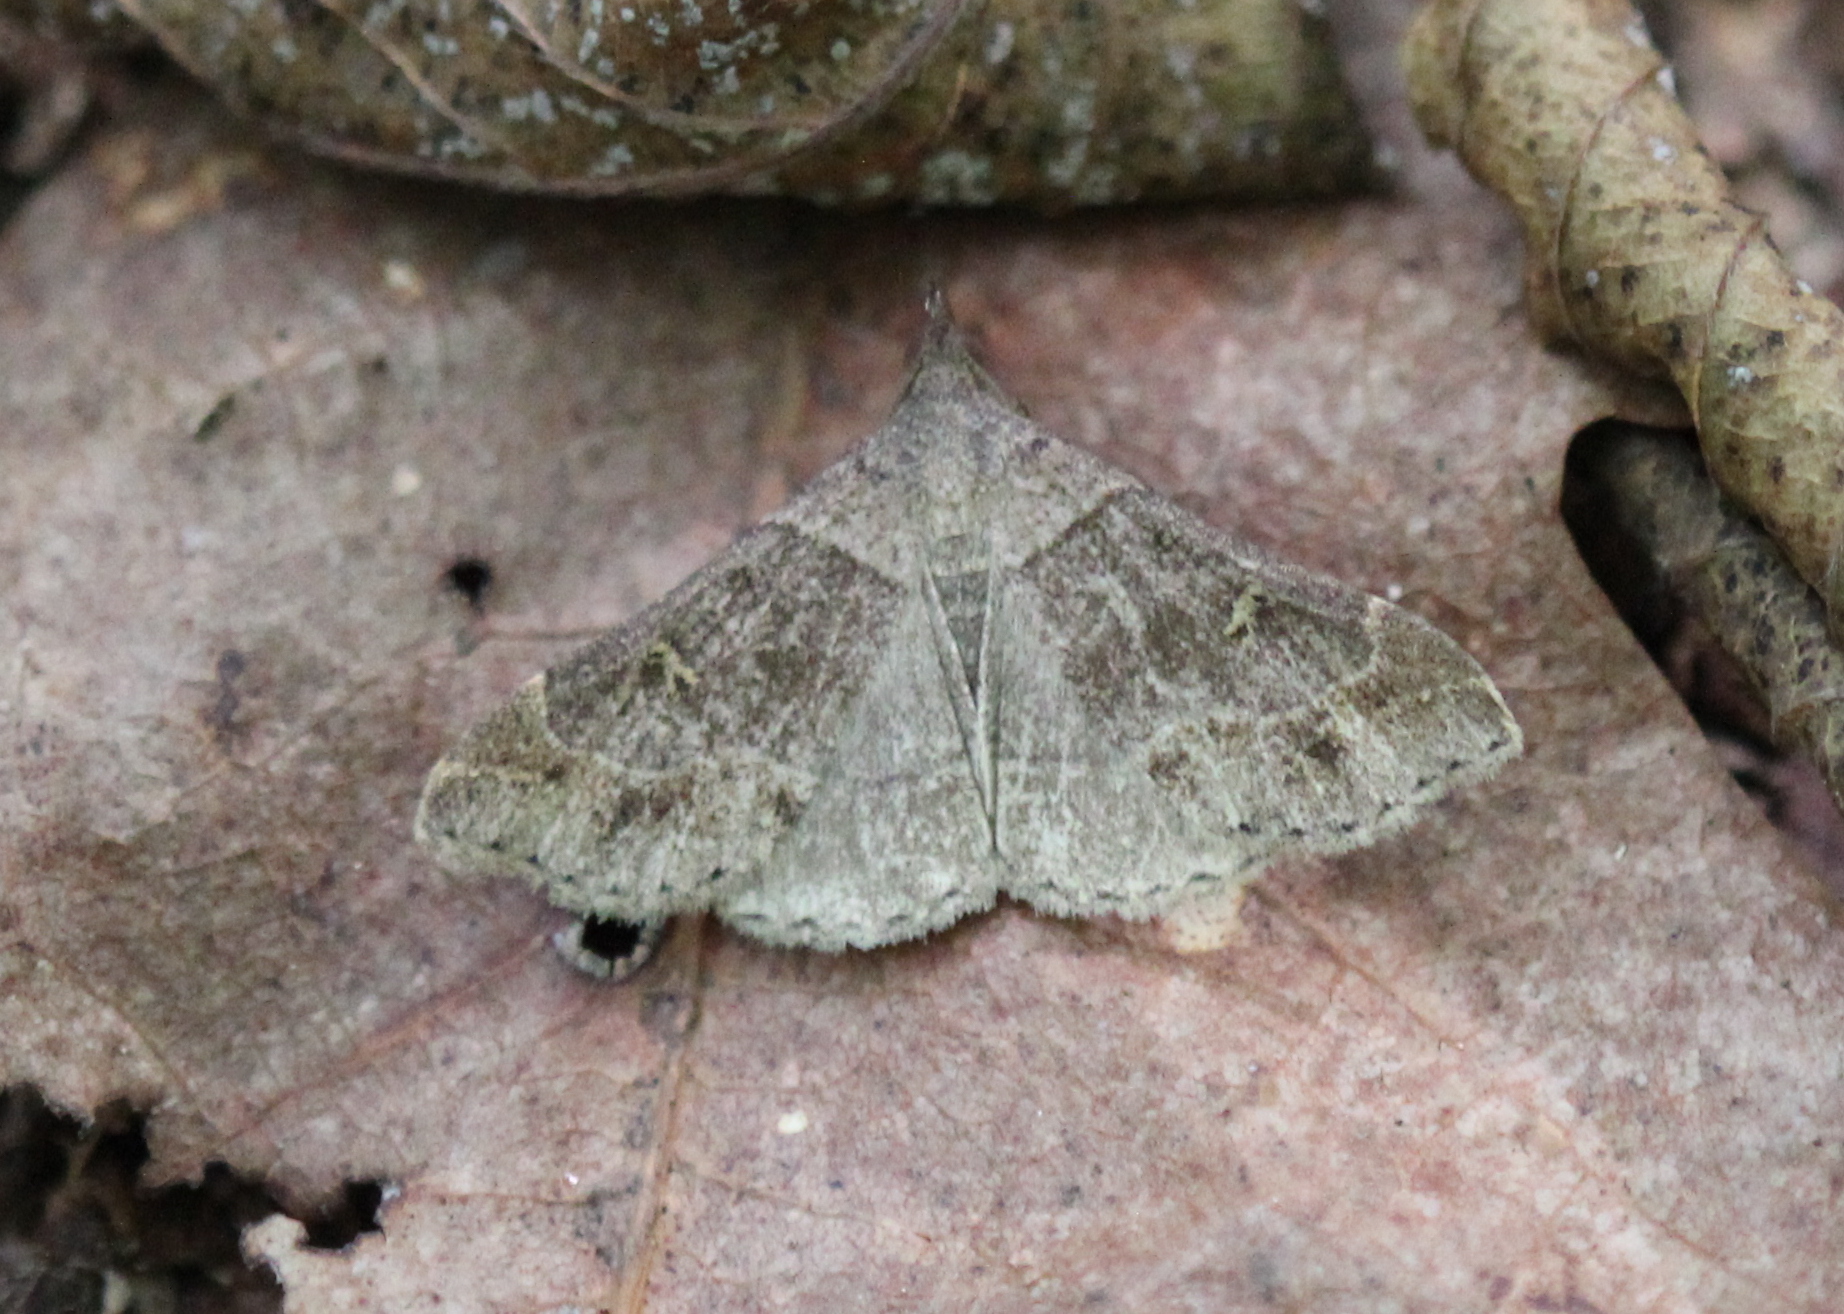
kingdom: Animalia
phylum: Arthropoda
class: Insecta
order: Lepidoptera
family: Erebidae
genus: Renia
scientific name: Renia flavipunctalis
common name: Yellow-spotted renia moth
